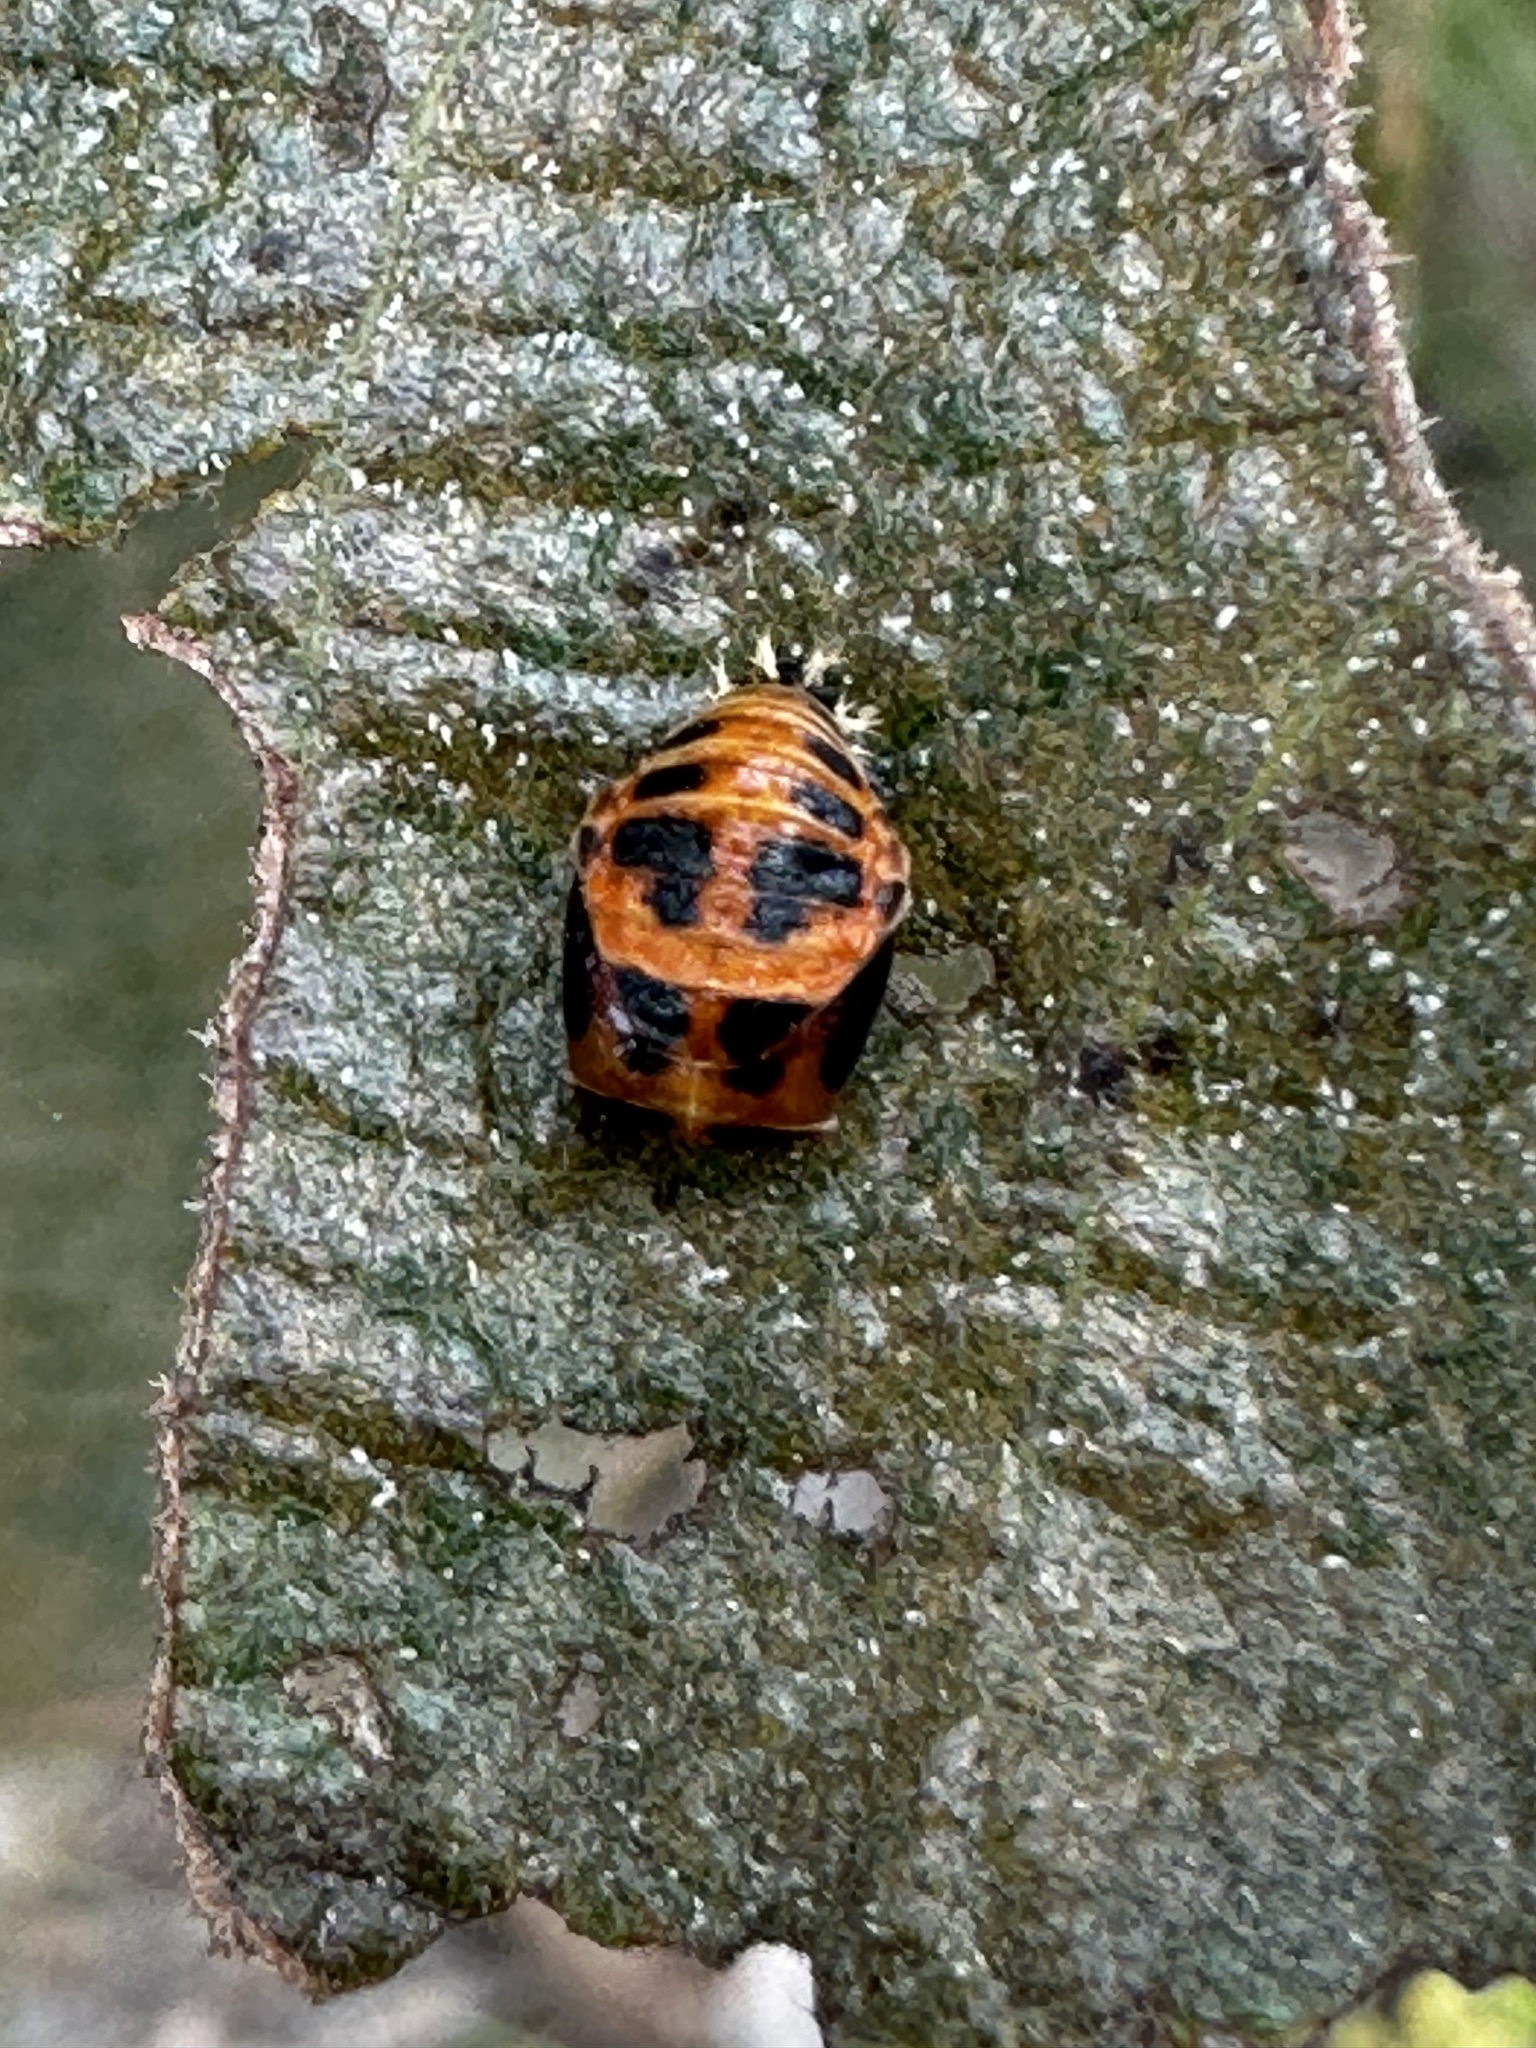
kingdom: Animalia
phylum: Arthropoda
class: Insecta
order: Coleoptera
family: Coccinellidae
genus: Harmonia
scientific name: Harmonia axyridis
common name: Harlequin ladybird
